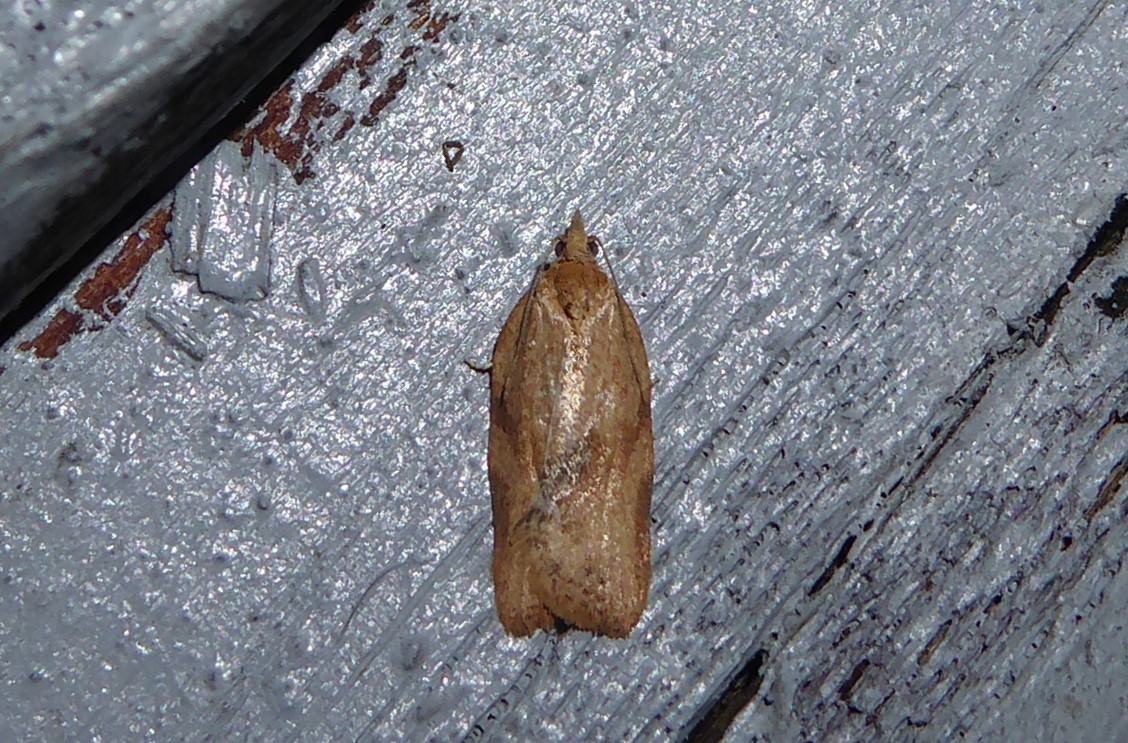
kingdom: Animalia
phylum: Arthropoda
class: Insecta
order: Lepidoptera
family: Tortricidae
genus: Epiphyas
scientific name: Epiphyas postvittana
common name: Light brown apple moth
